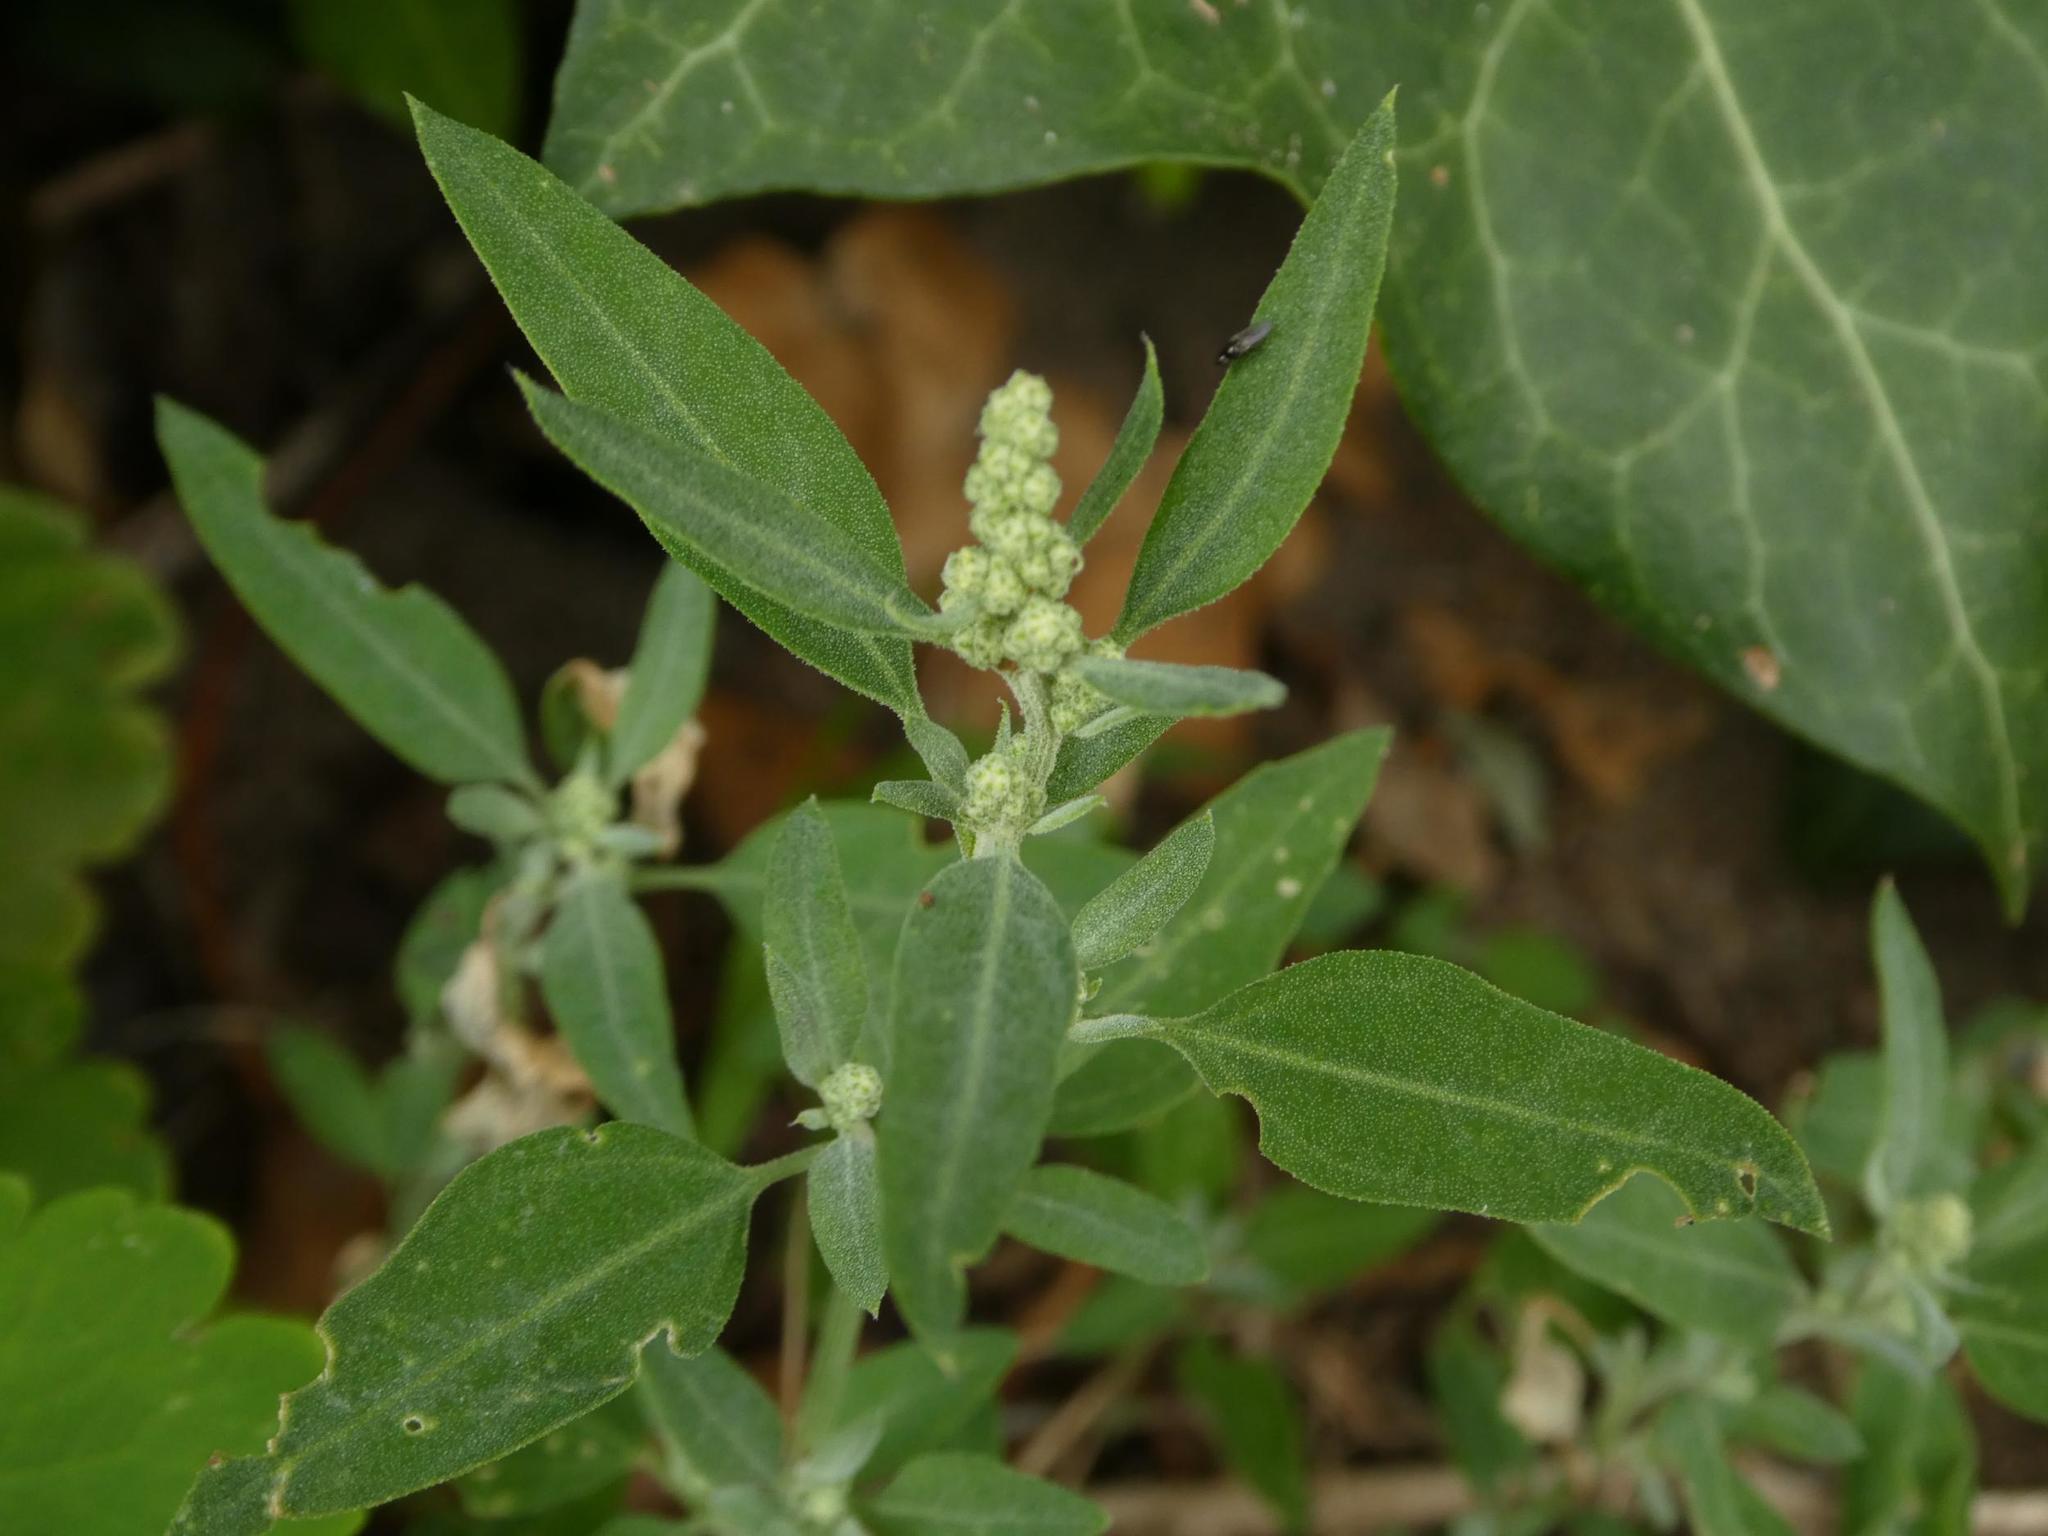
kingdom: Plantae
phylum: Tracheophyta
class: Magnoliopsida
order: Caryophyllales
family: Amaranthaceae
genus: Chenopodium
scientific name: Chenopodium album
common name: Fat-hen
